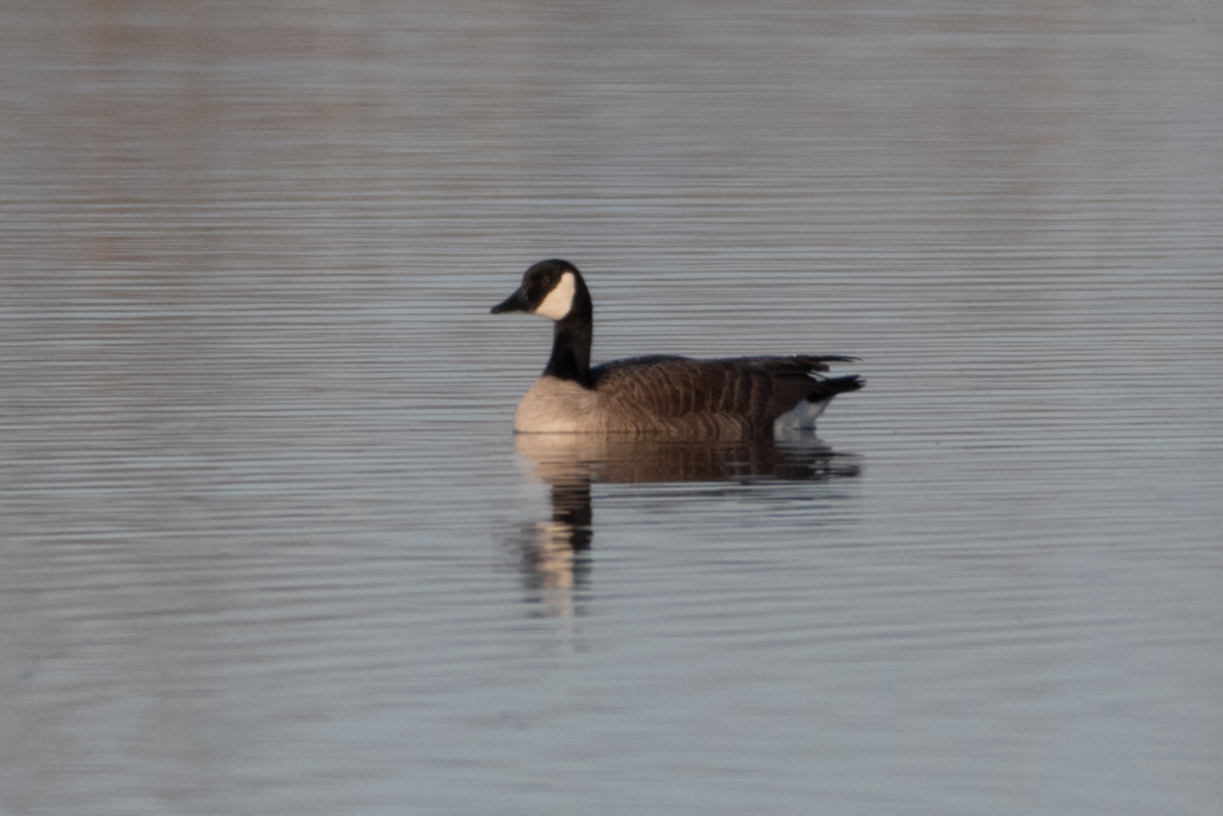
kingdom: Animalia
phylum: Chordata
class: Aves
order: Anseriformes
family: Anatidae
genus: Branta
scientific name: Branta canadensis
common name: Canada goose
